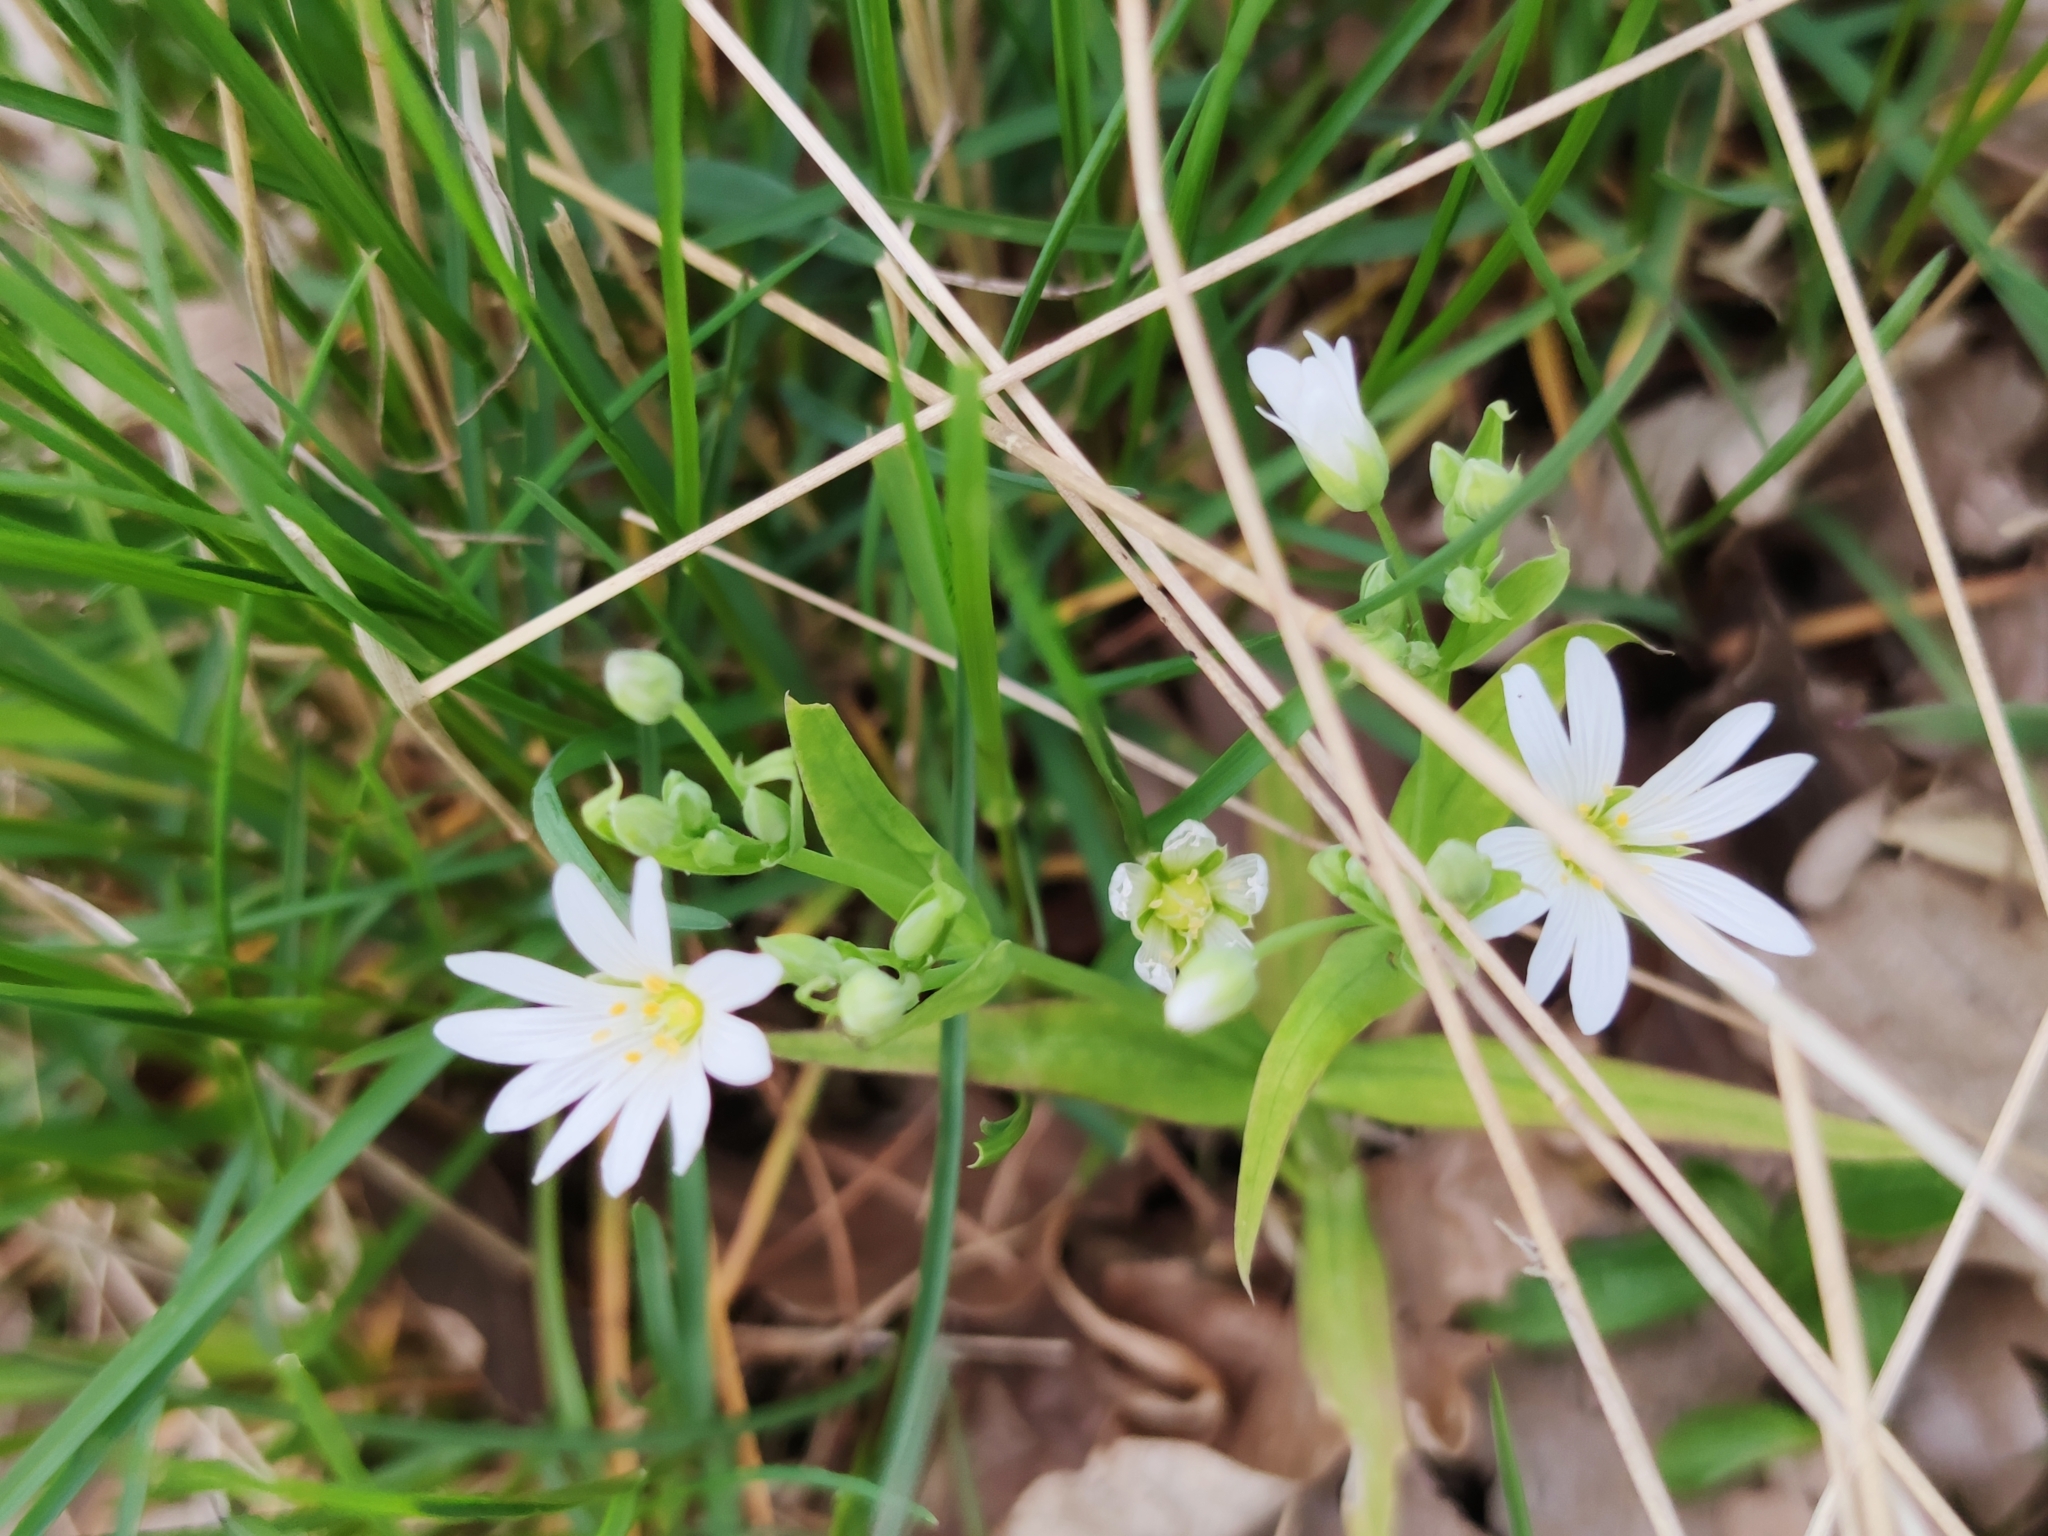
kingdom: Plantae
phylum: Tracheophyta
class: Magnoliopsida
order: Caryophyllales
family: Caryophyllaceae
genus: Rabelera
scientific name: Rabelera holostea
